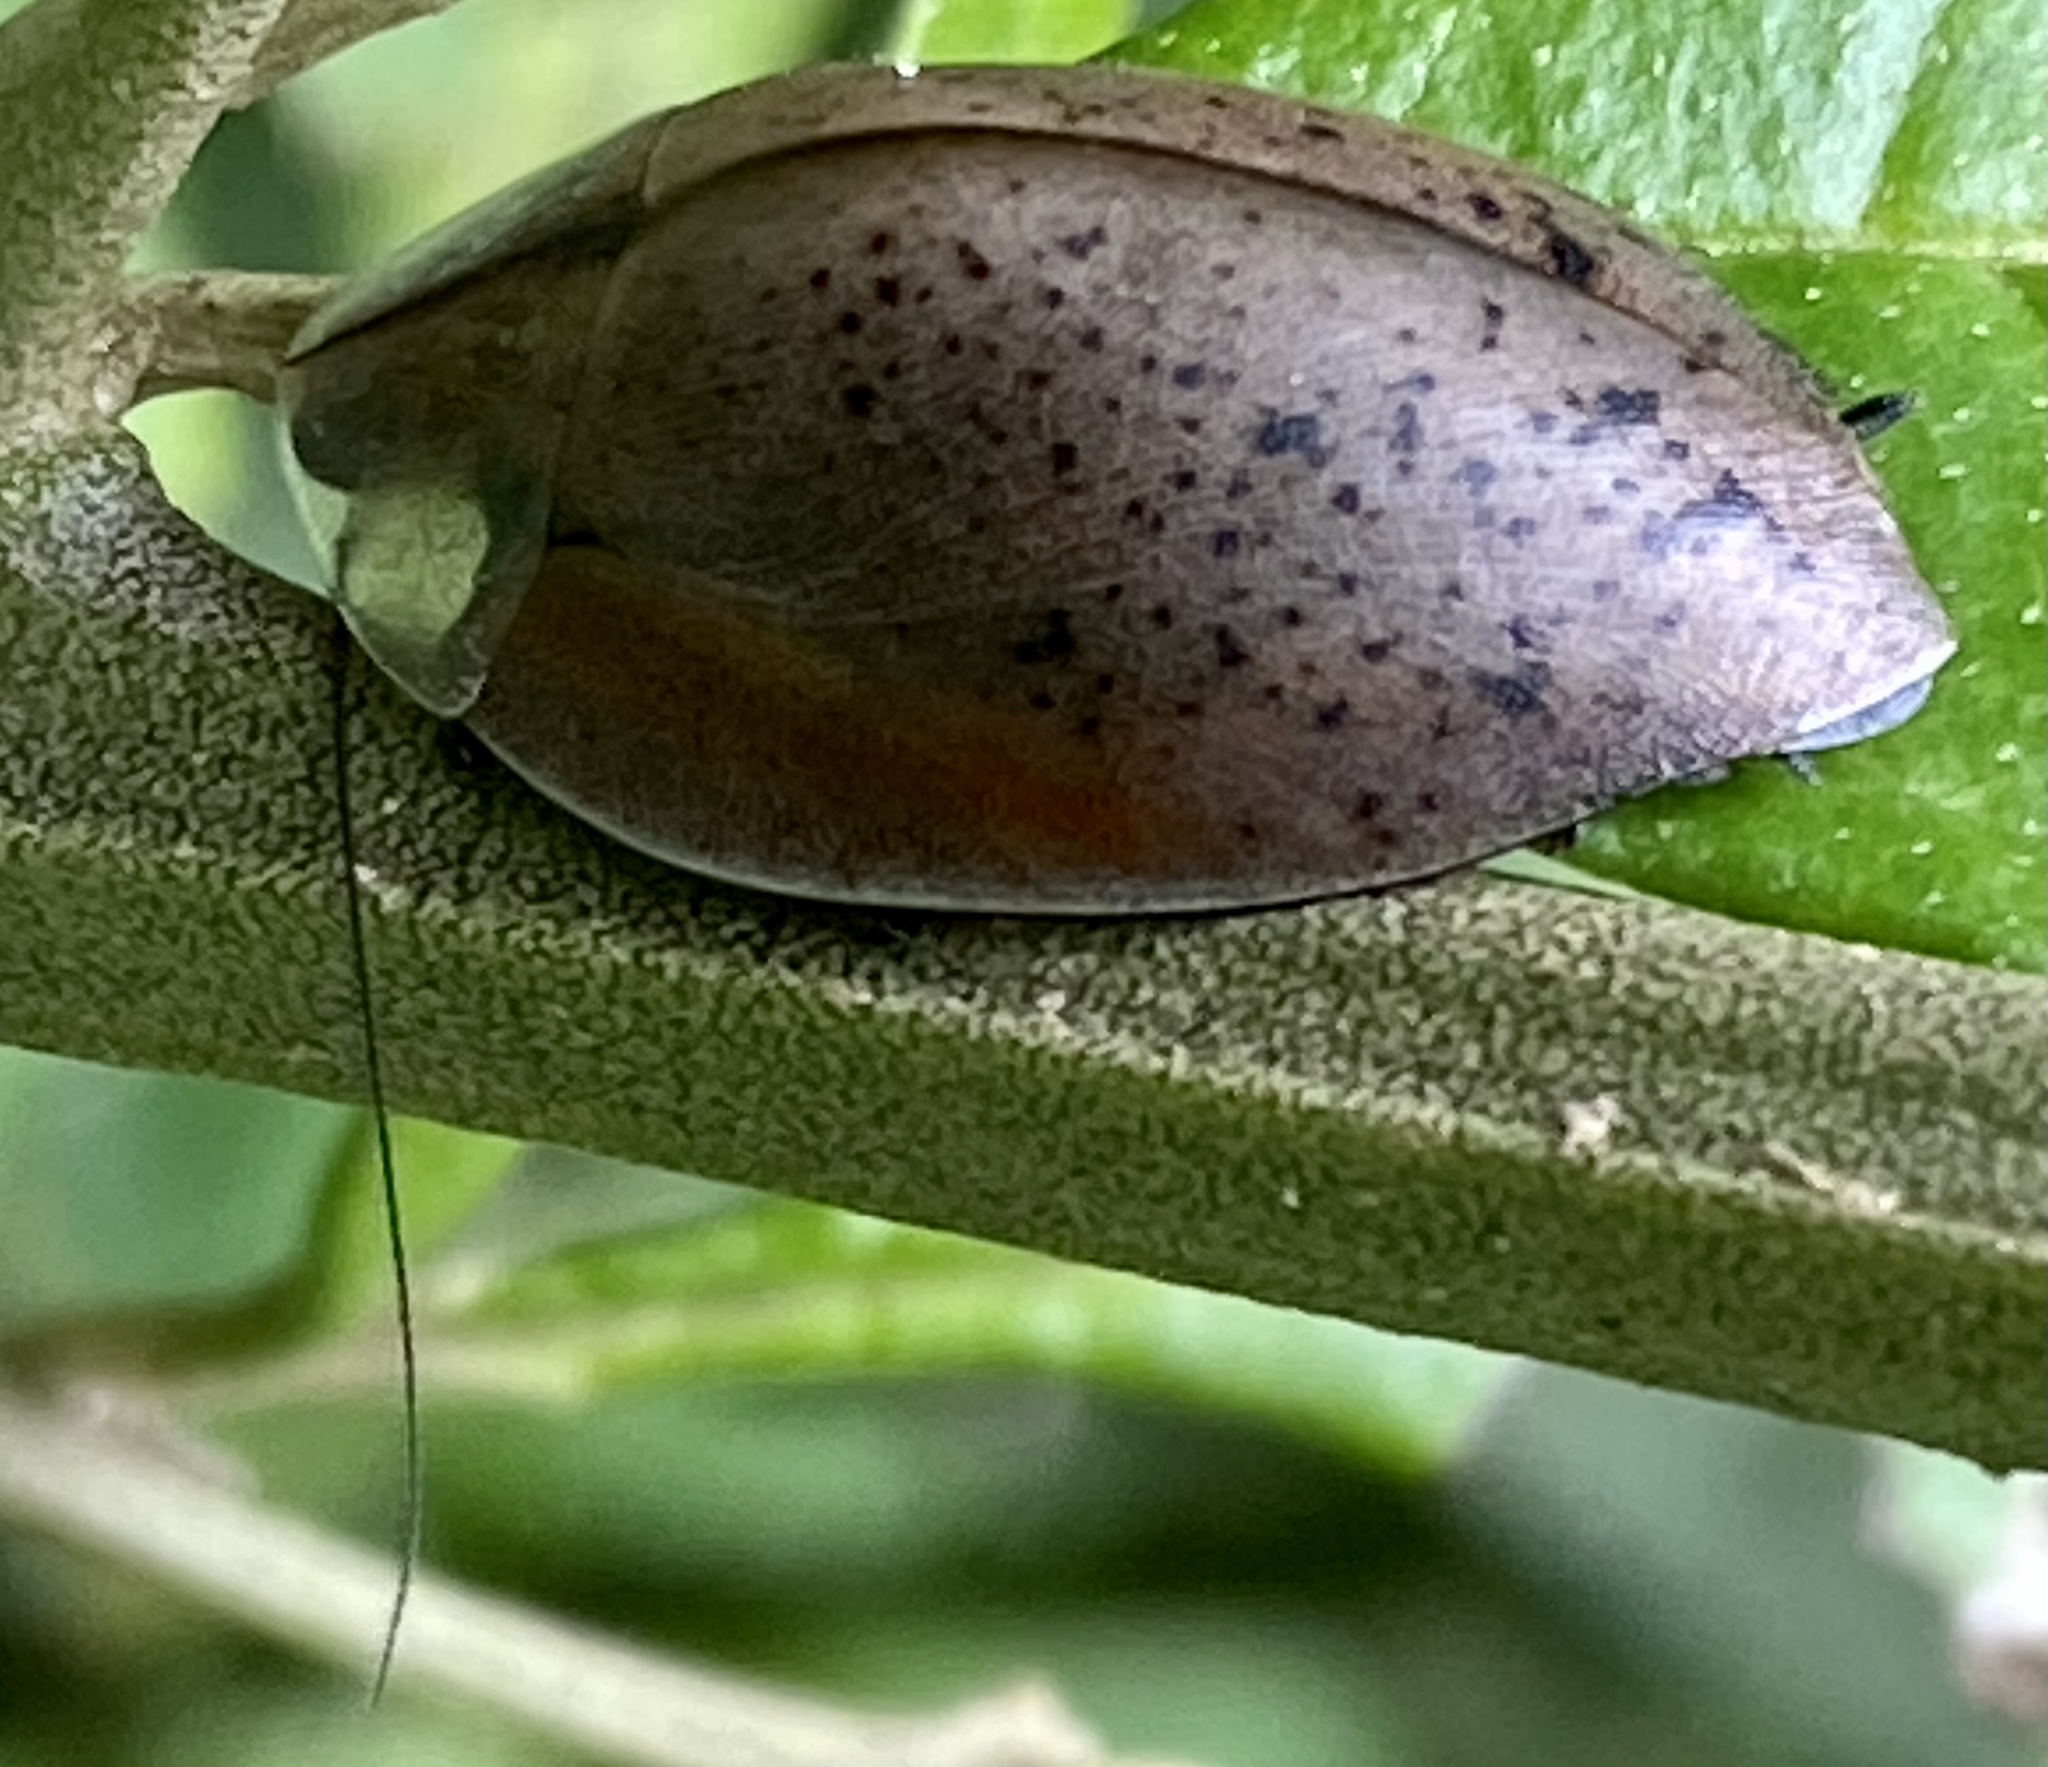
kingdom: Animalia
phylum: Arthropoda
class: Insecta
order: Blattodea
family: Blaberidae
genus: Phoraspis
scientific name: Phoraspis flavipes
